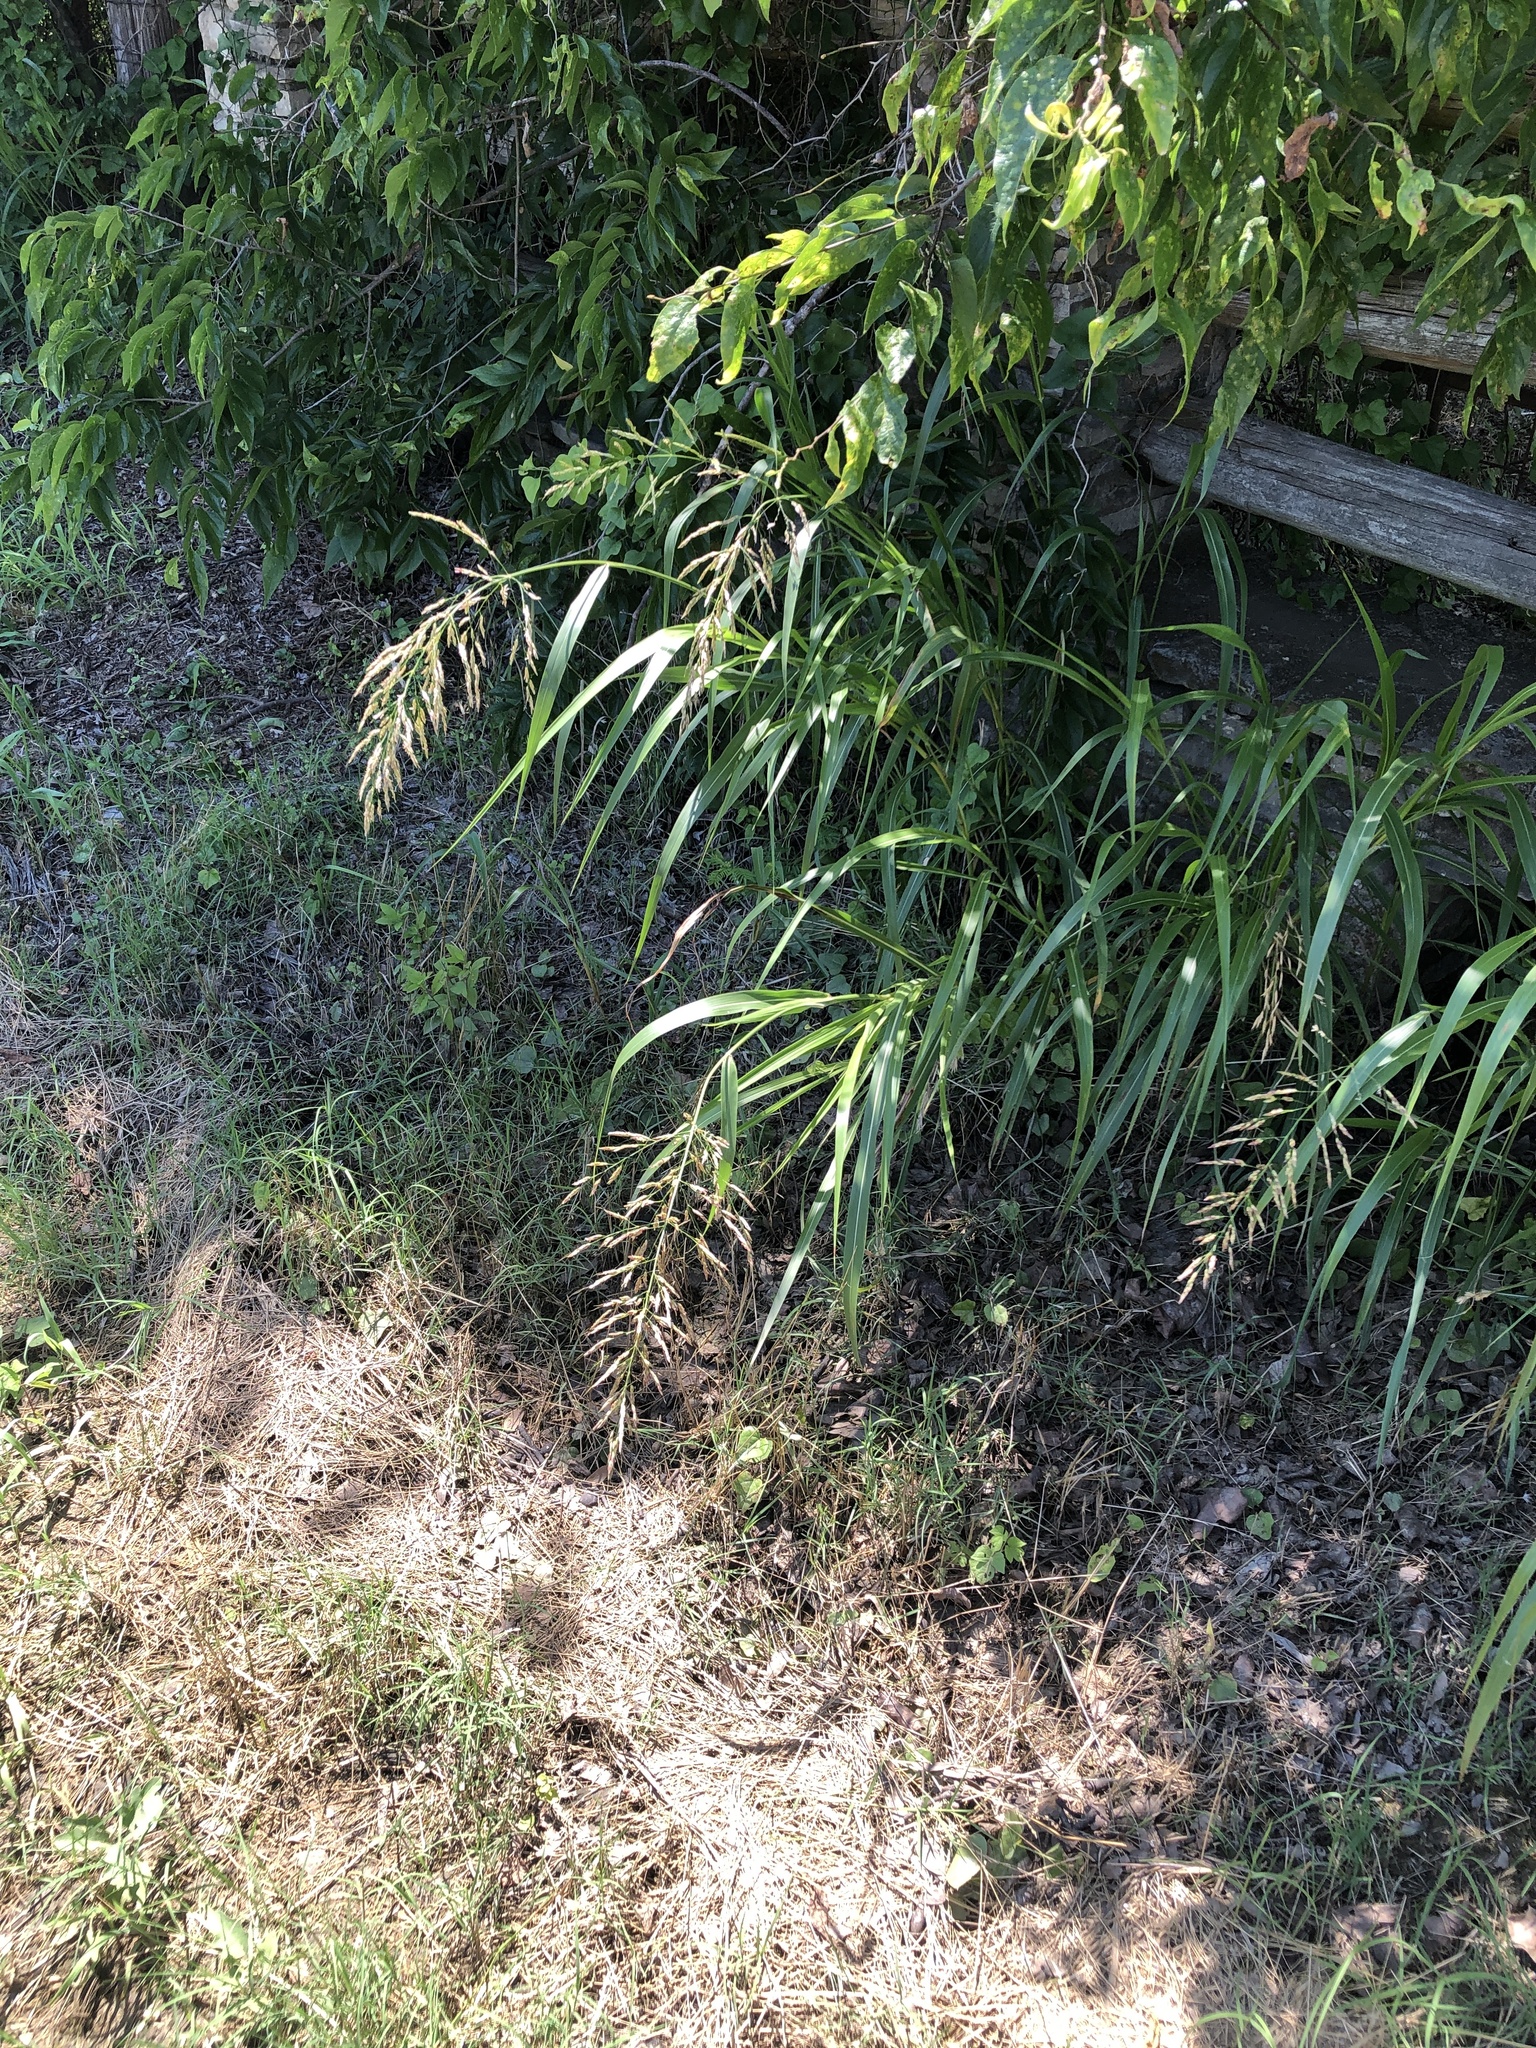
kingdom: Plantae
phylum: Tracheophyta
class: Liliopsida
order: Poales
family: Poaceae
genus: Sorghum
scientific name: Sorghum halepense
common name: Johnson-grass
